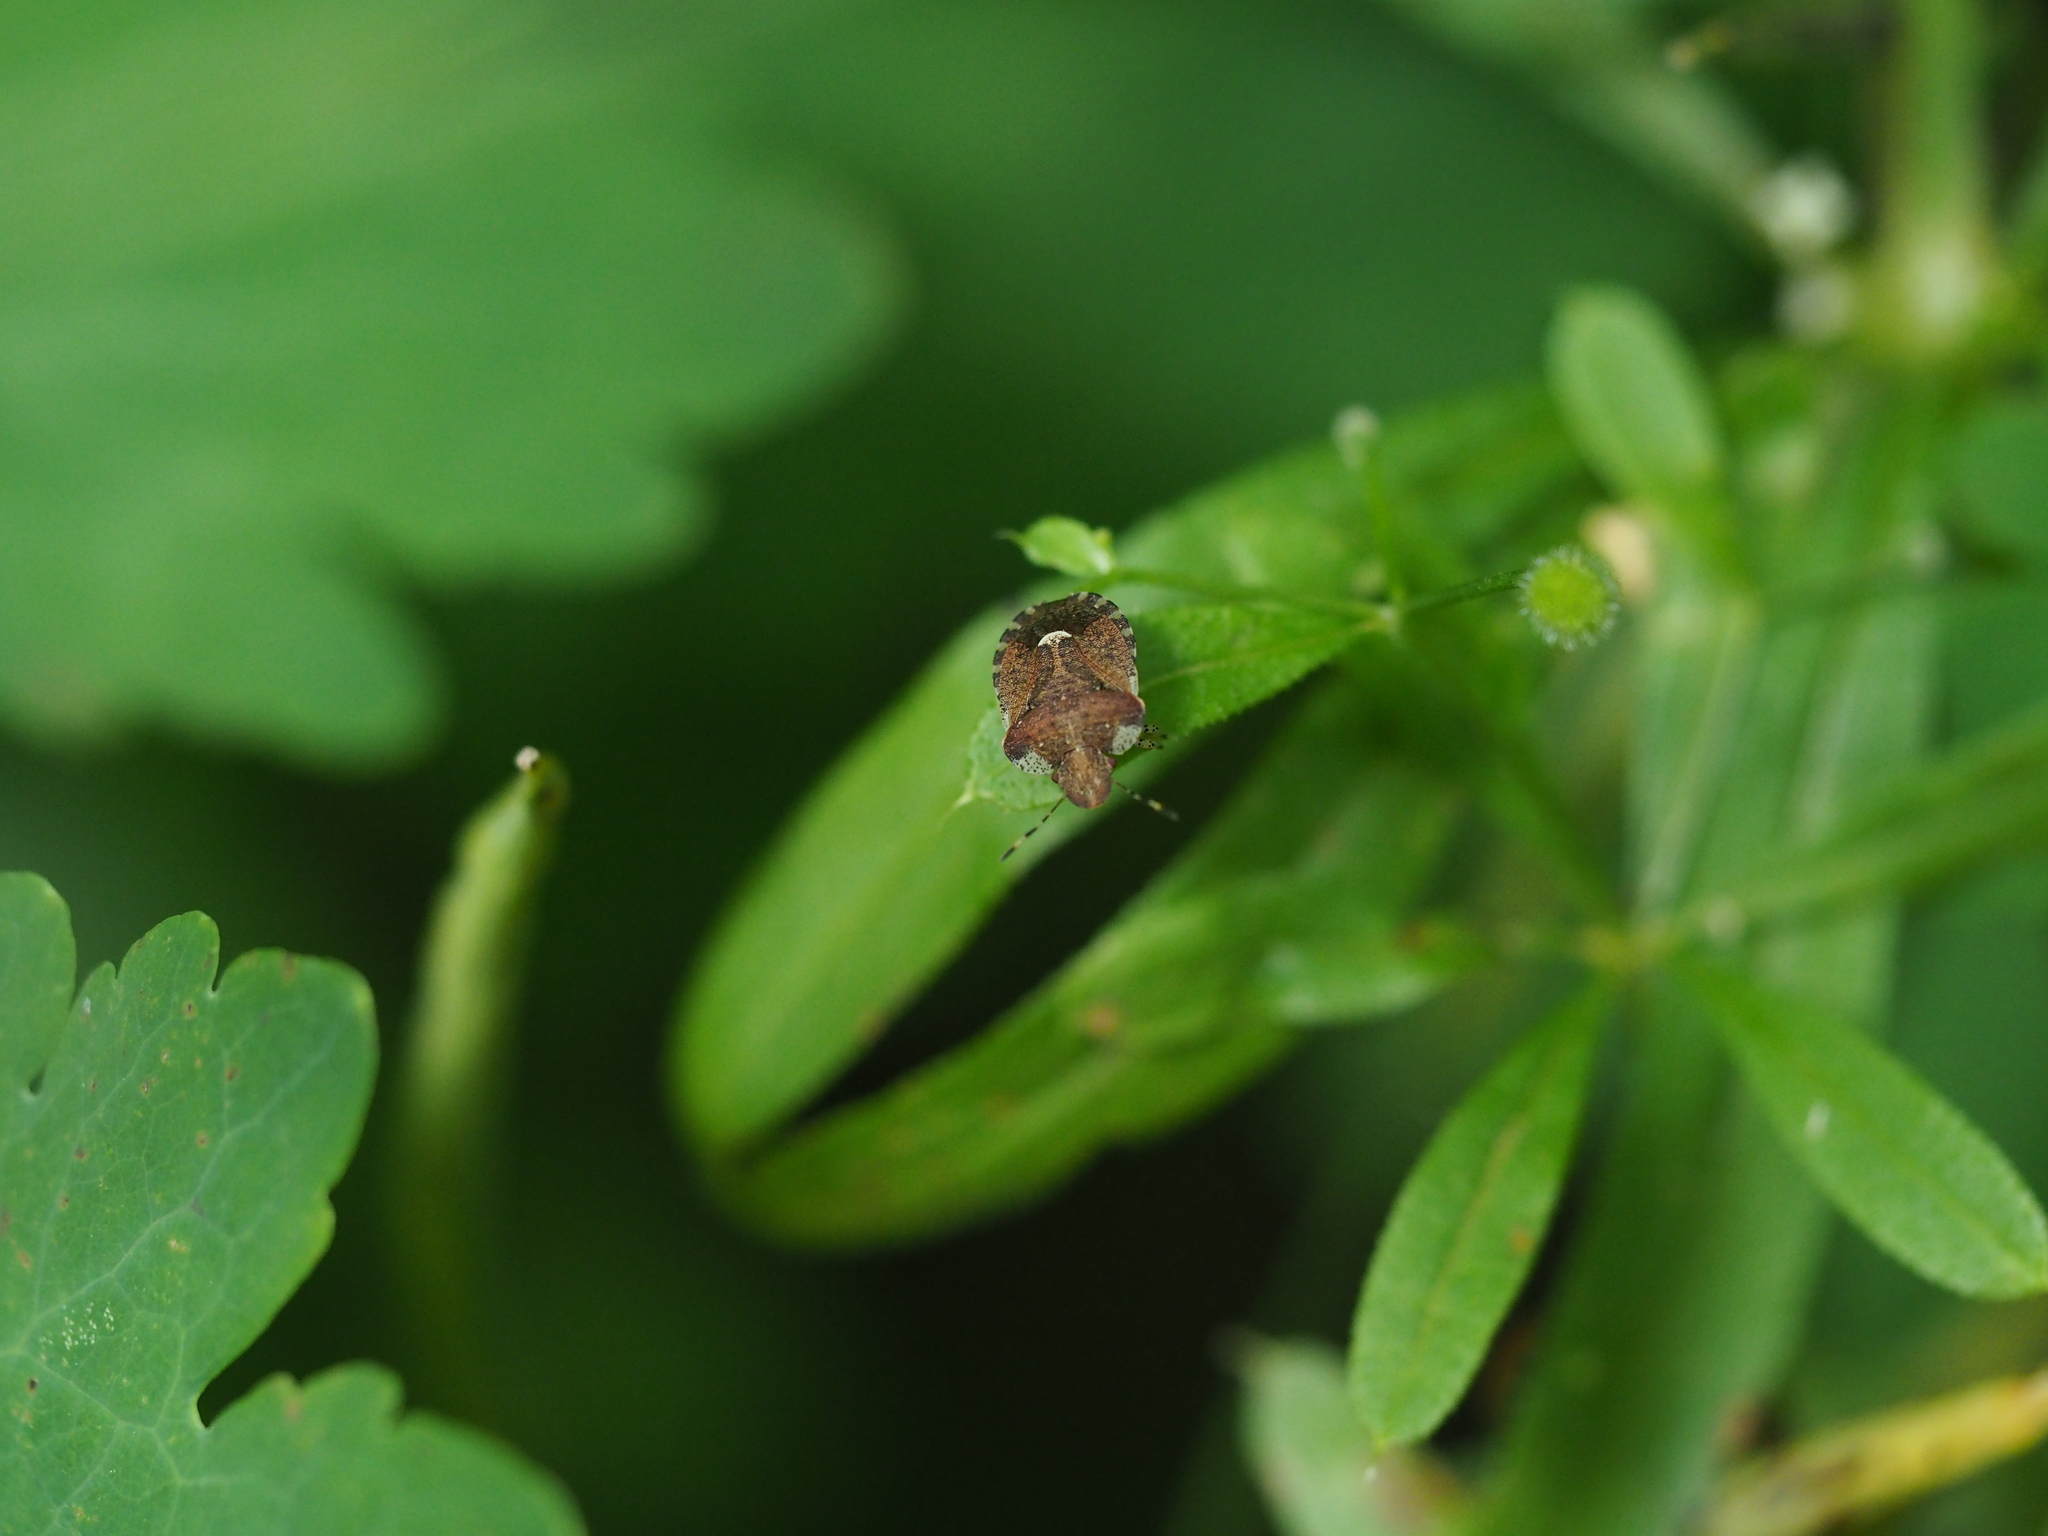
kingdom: Animalia
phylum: Arthropoda
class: Insecta
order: Hemiptera
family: Pentatomidae
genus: Dyroderes
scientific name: Dyroderes umbraculatus
